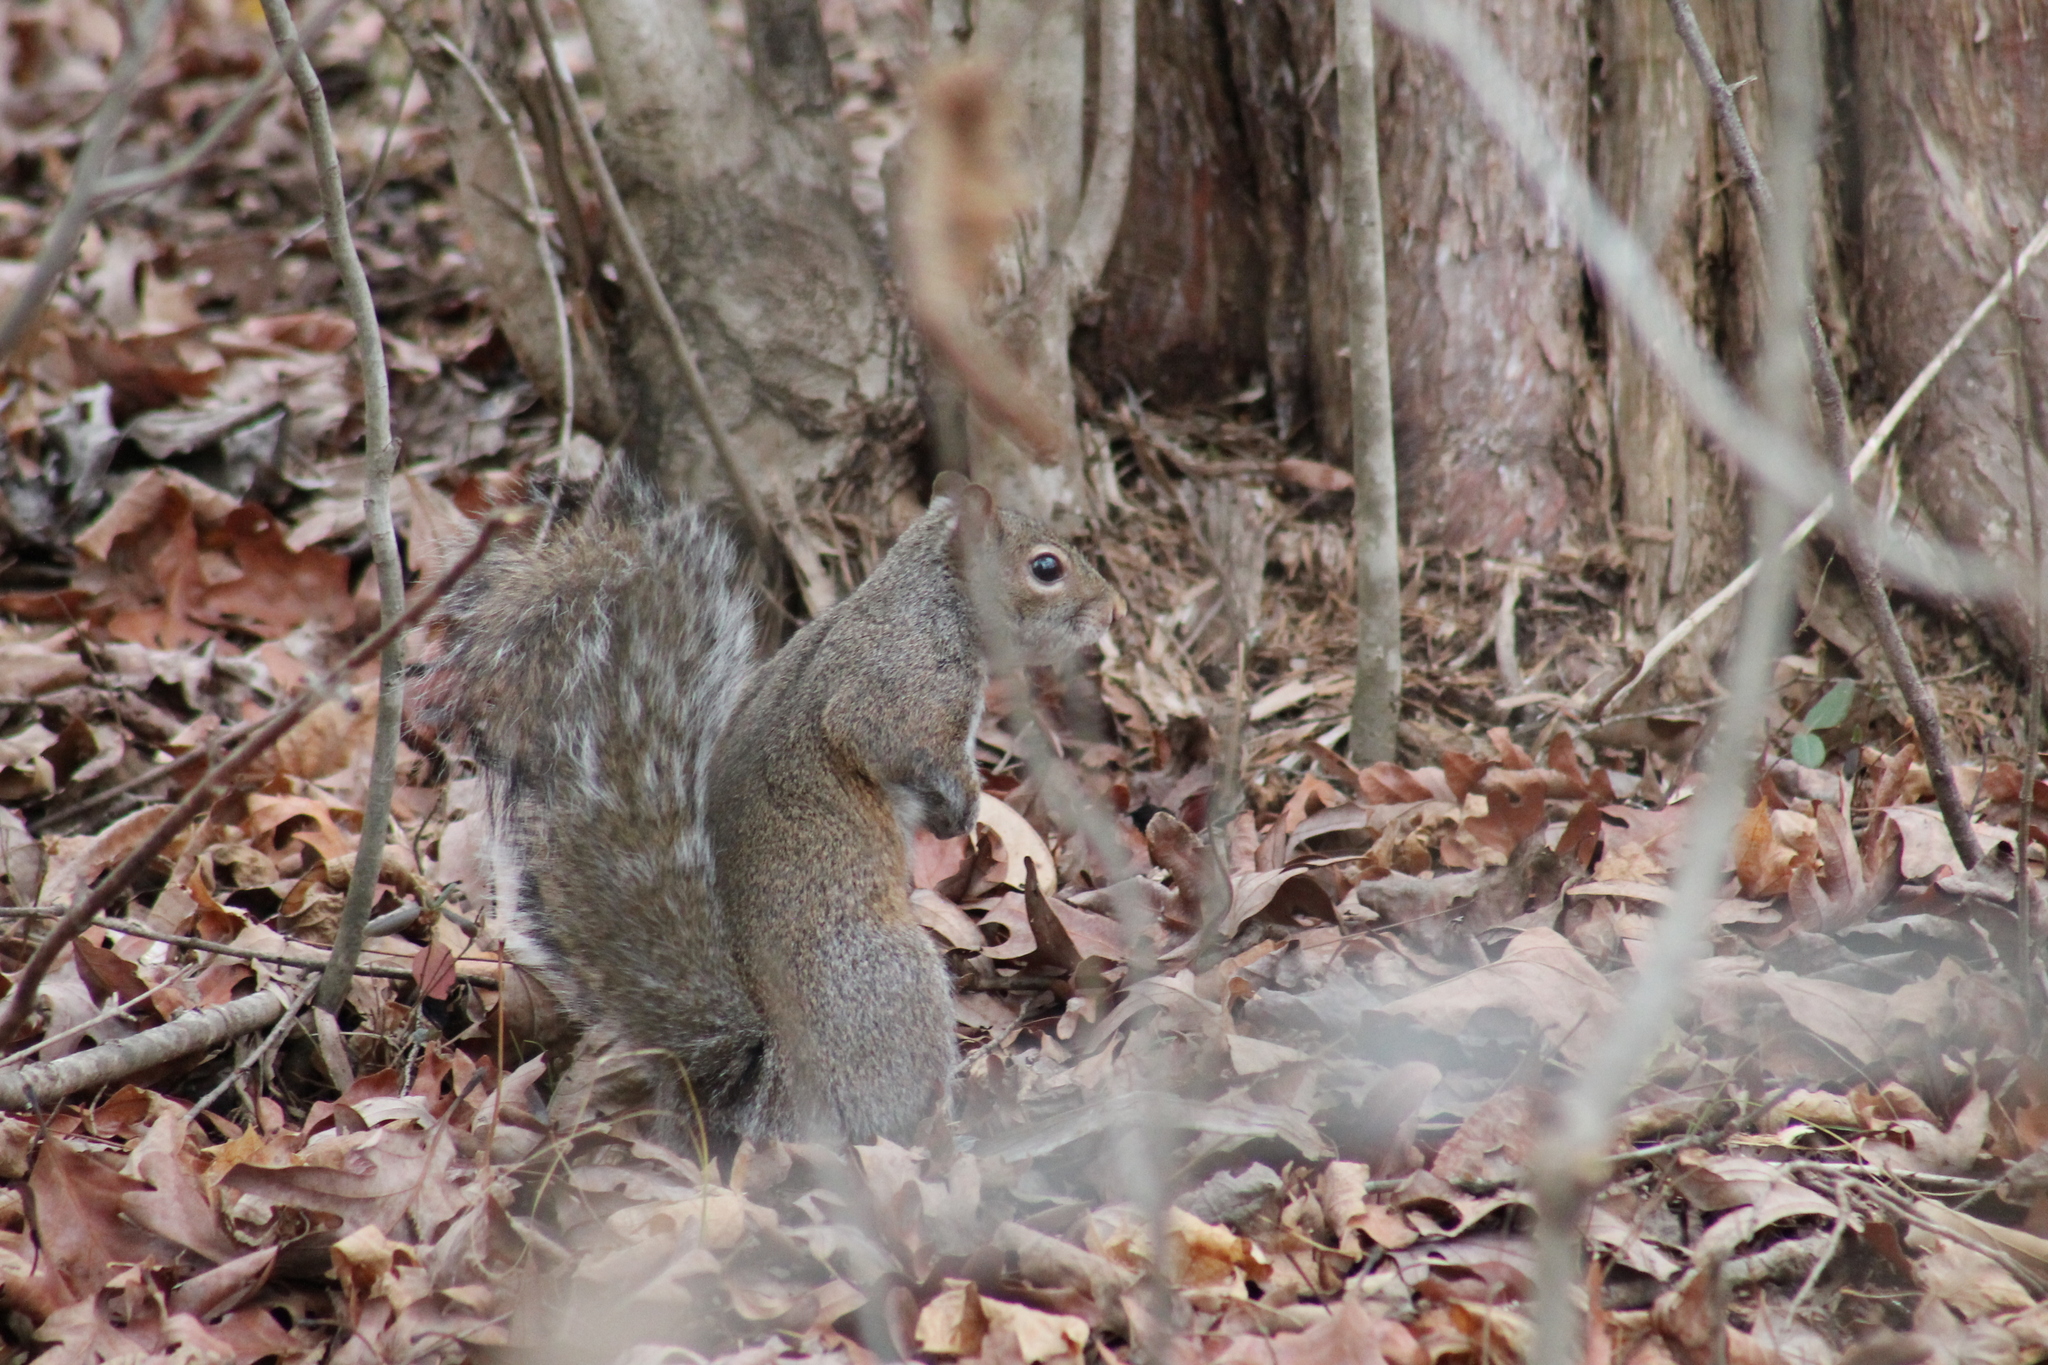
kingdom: Animalia
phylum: Chordata
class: Mammalia
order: Rodentia
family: Sciuridae
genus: Sciurus
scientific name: Sciurus carolinensis
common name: Eastern gray squirrel
